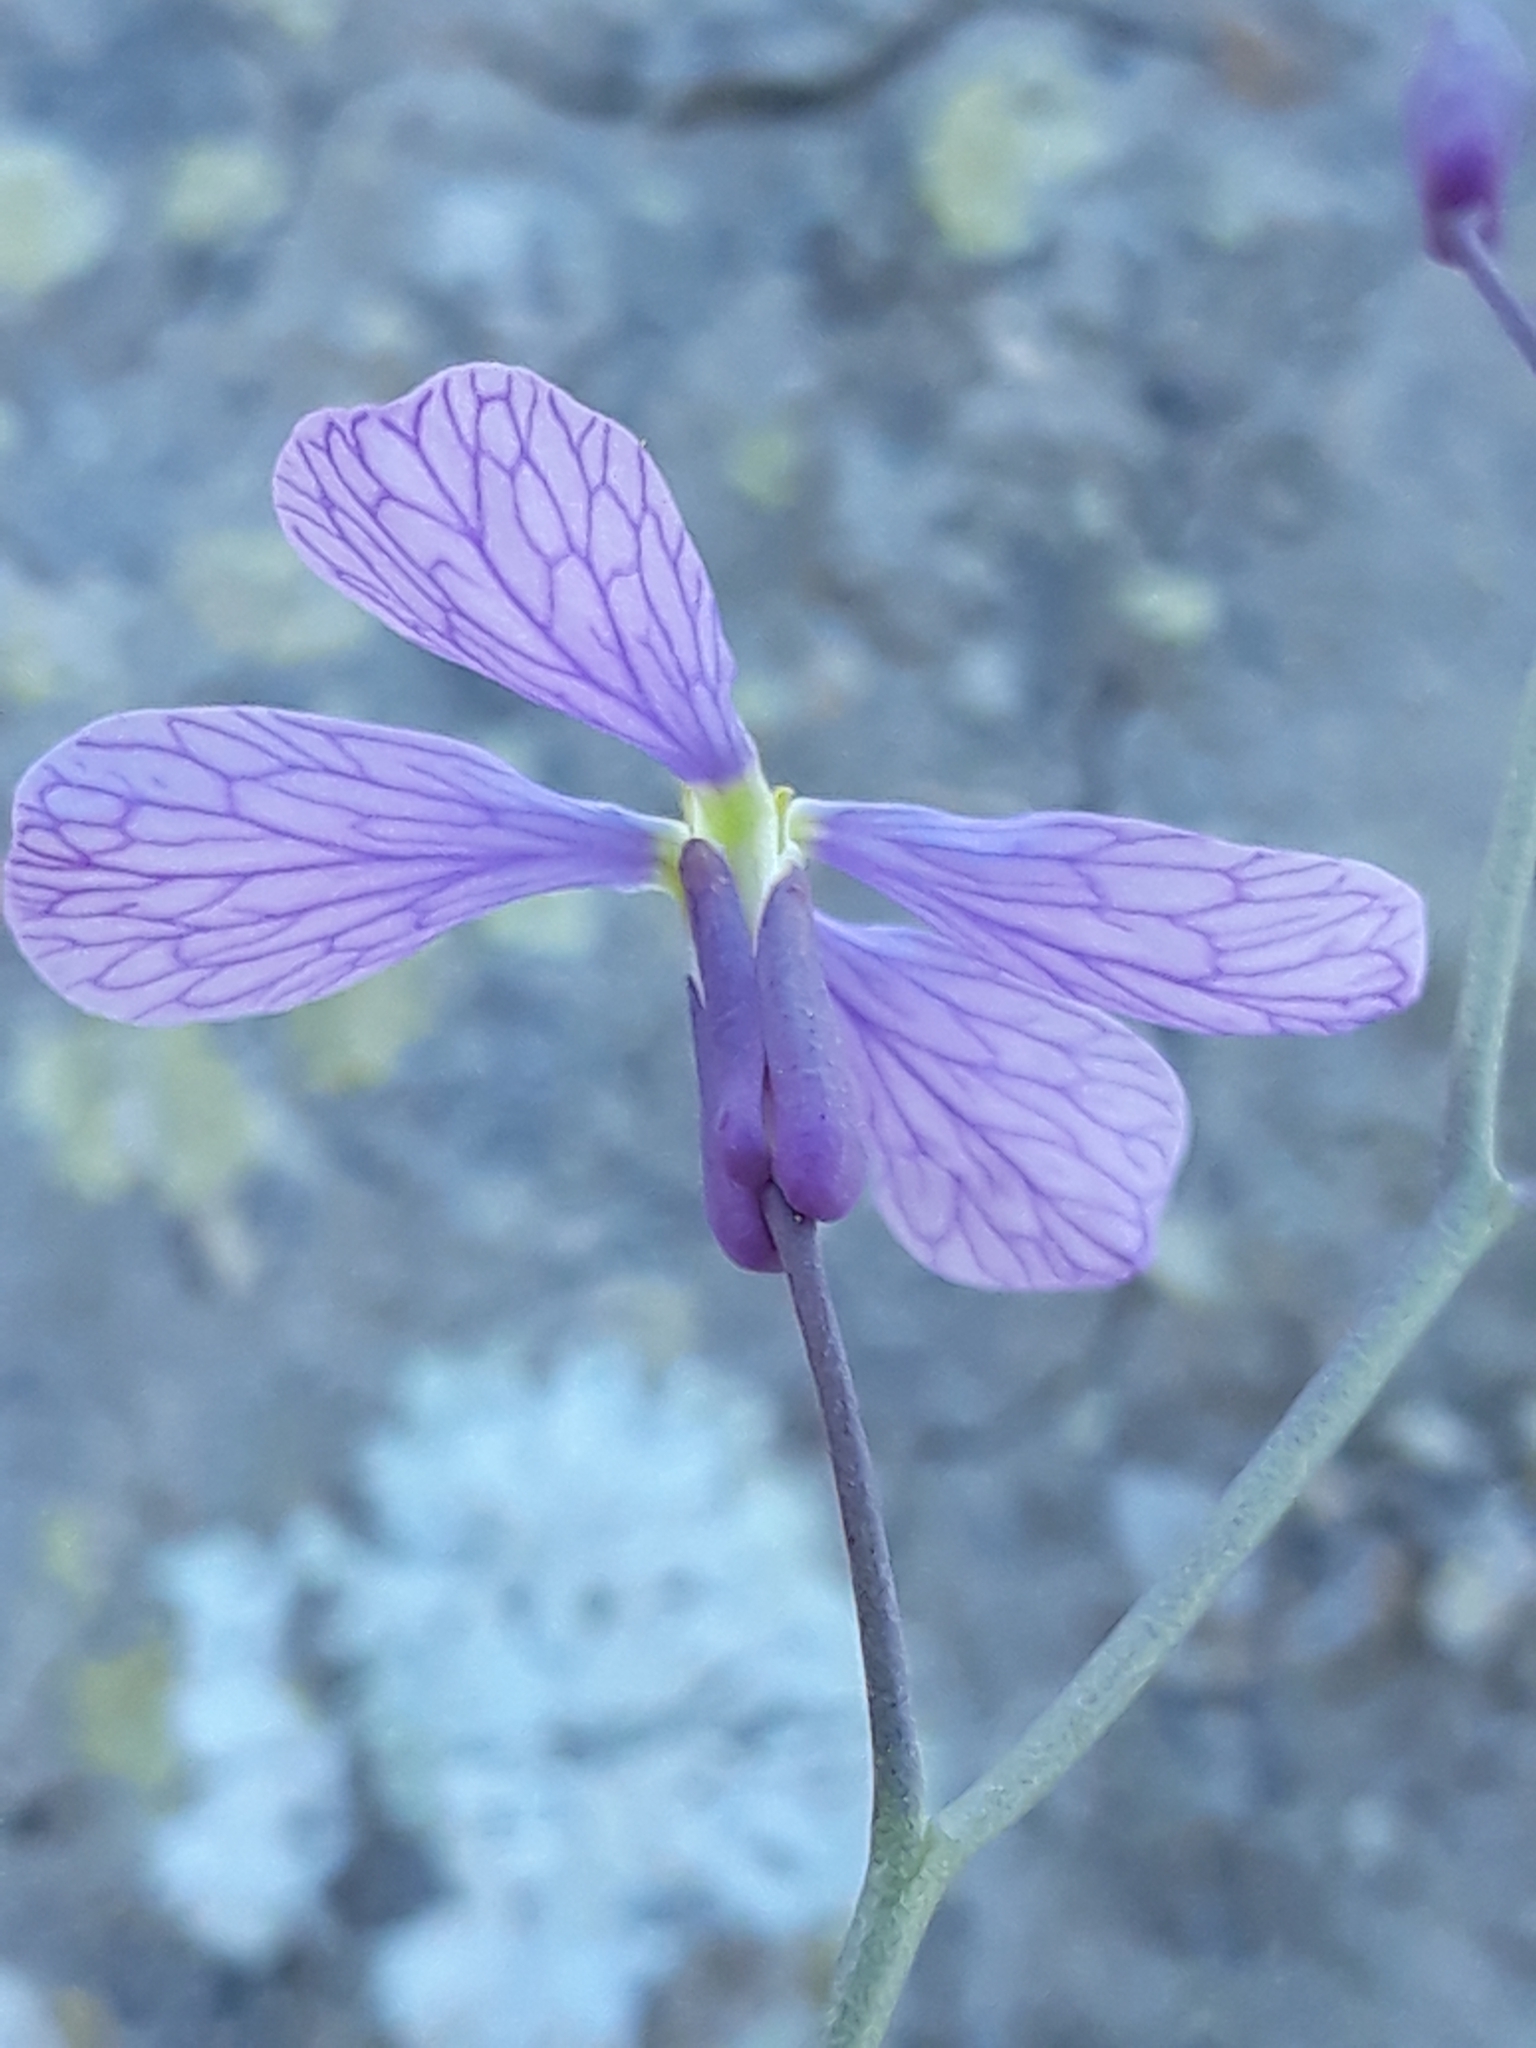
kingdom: Plantae
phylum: Tracheophyta
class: Magnoliopsida
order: Brassicales
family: Brassicaceae
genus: Pseuderucaria
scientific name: Pseuderucaria teretifolia
